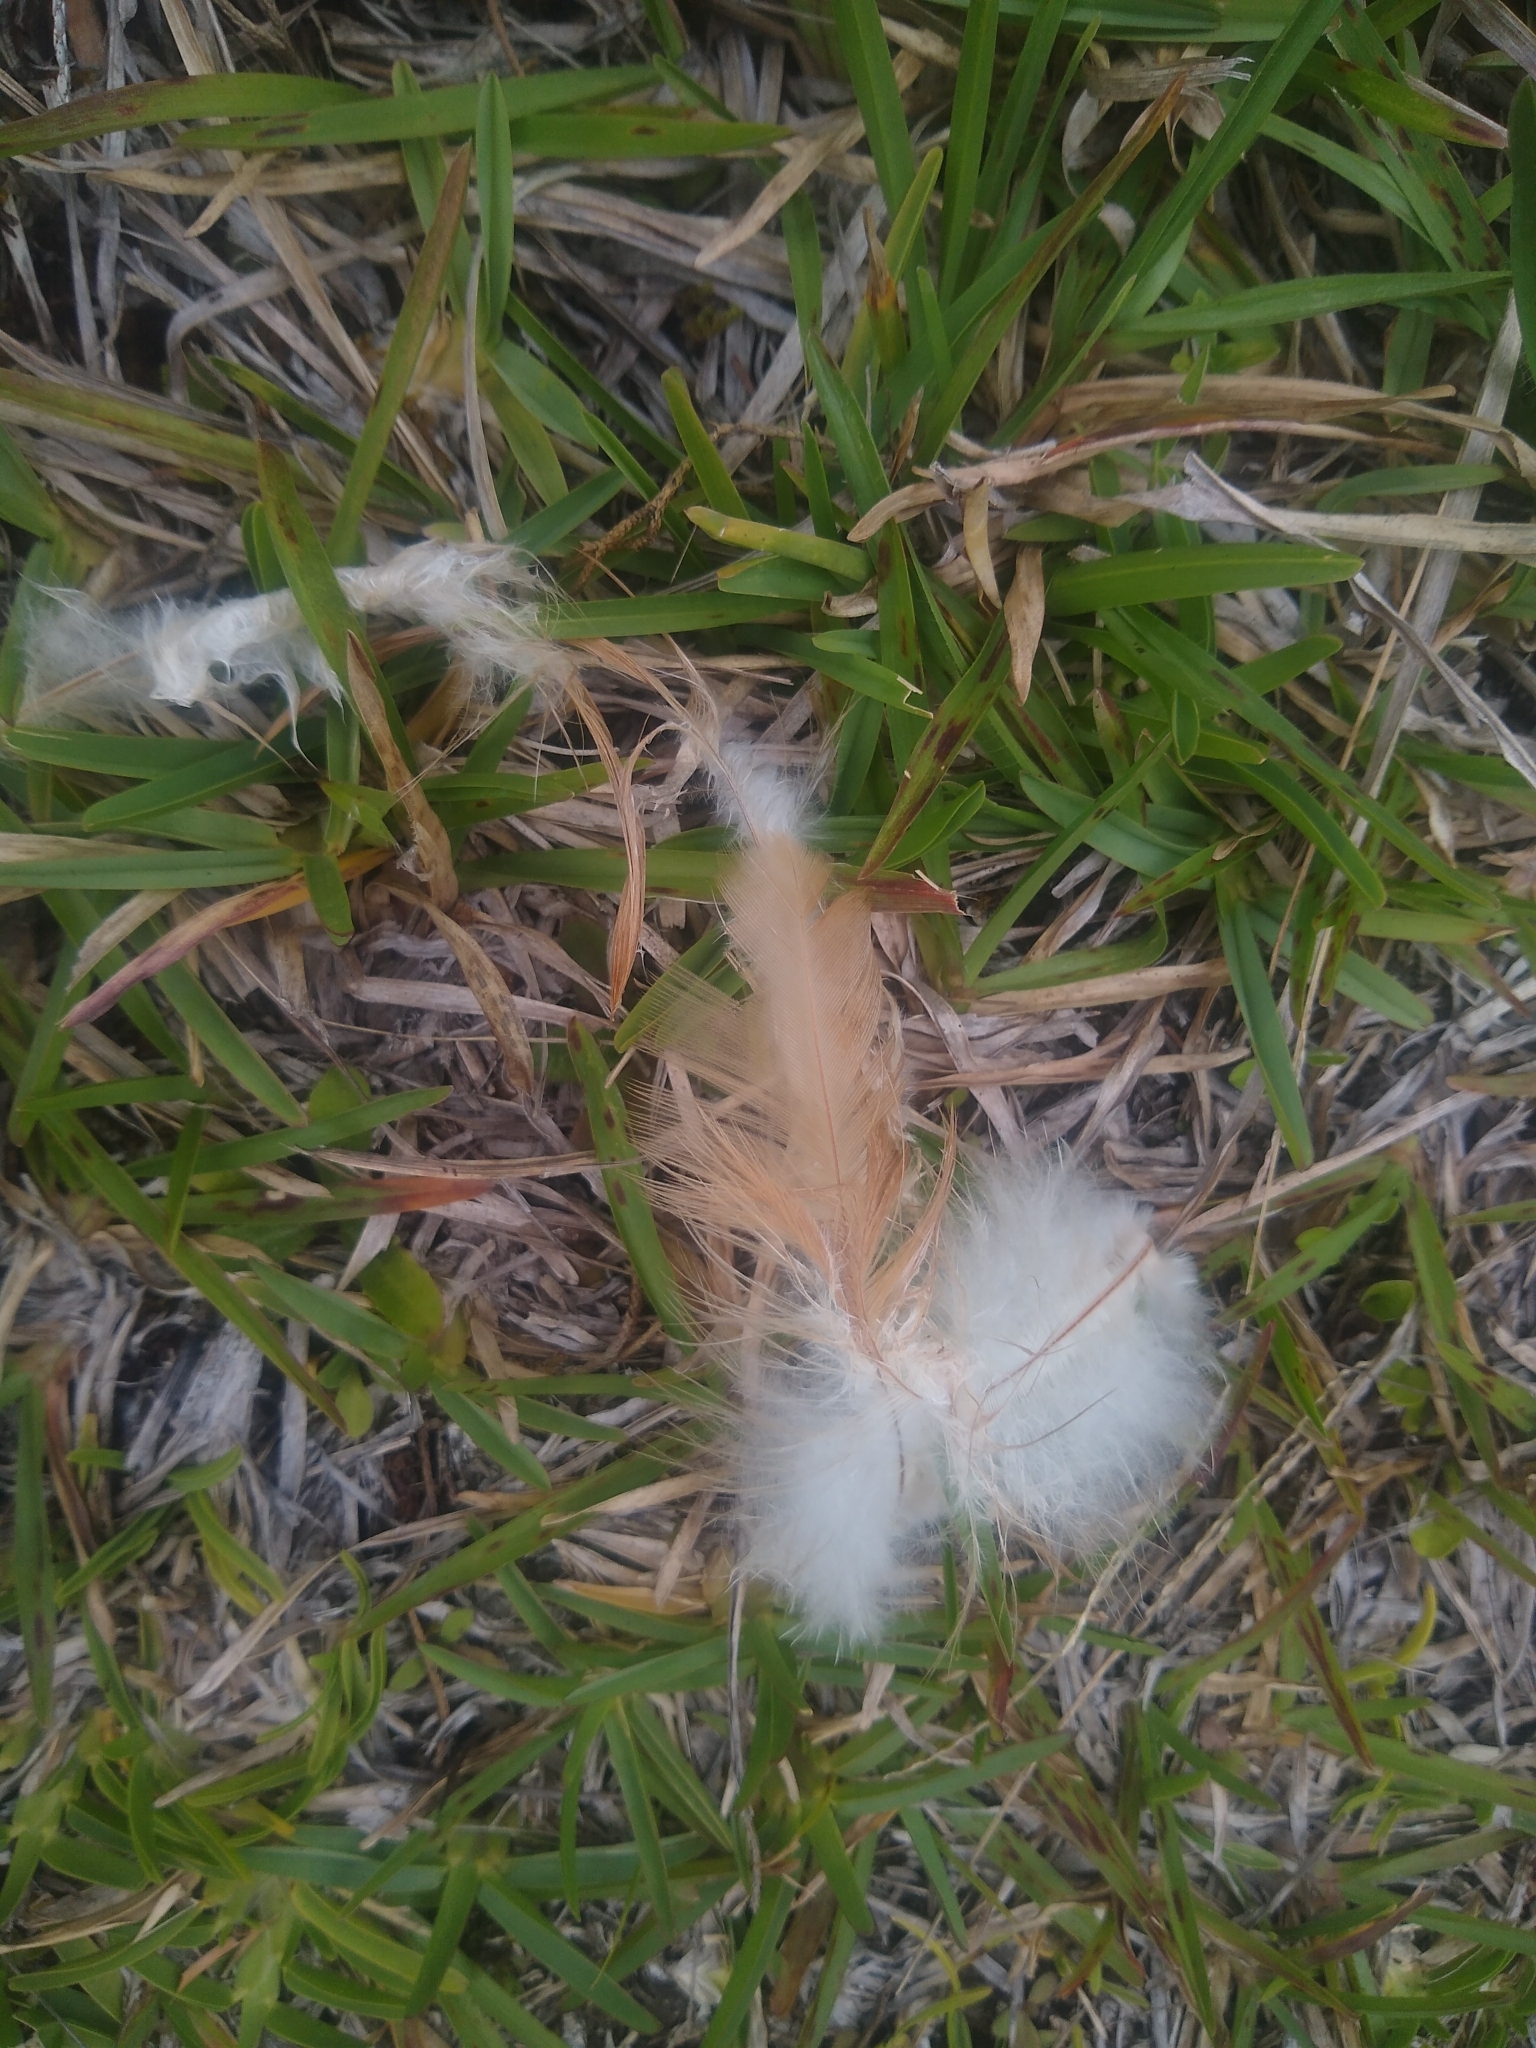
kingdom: Animalia
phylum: Chordata
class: Aves
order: Galliformes
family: Phasianidae
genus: Gallus
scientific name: Gallus gallus
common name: Red junglefowl
